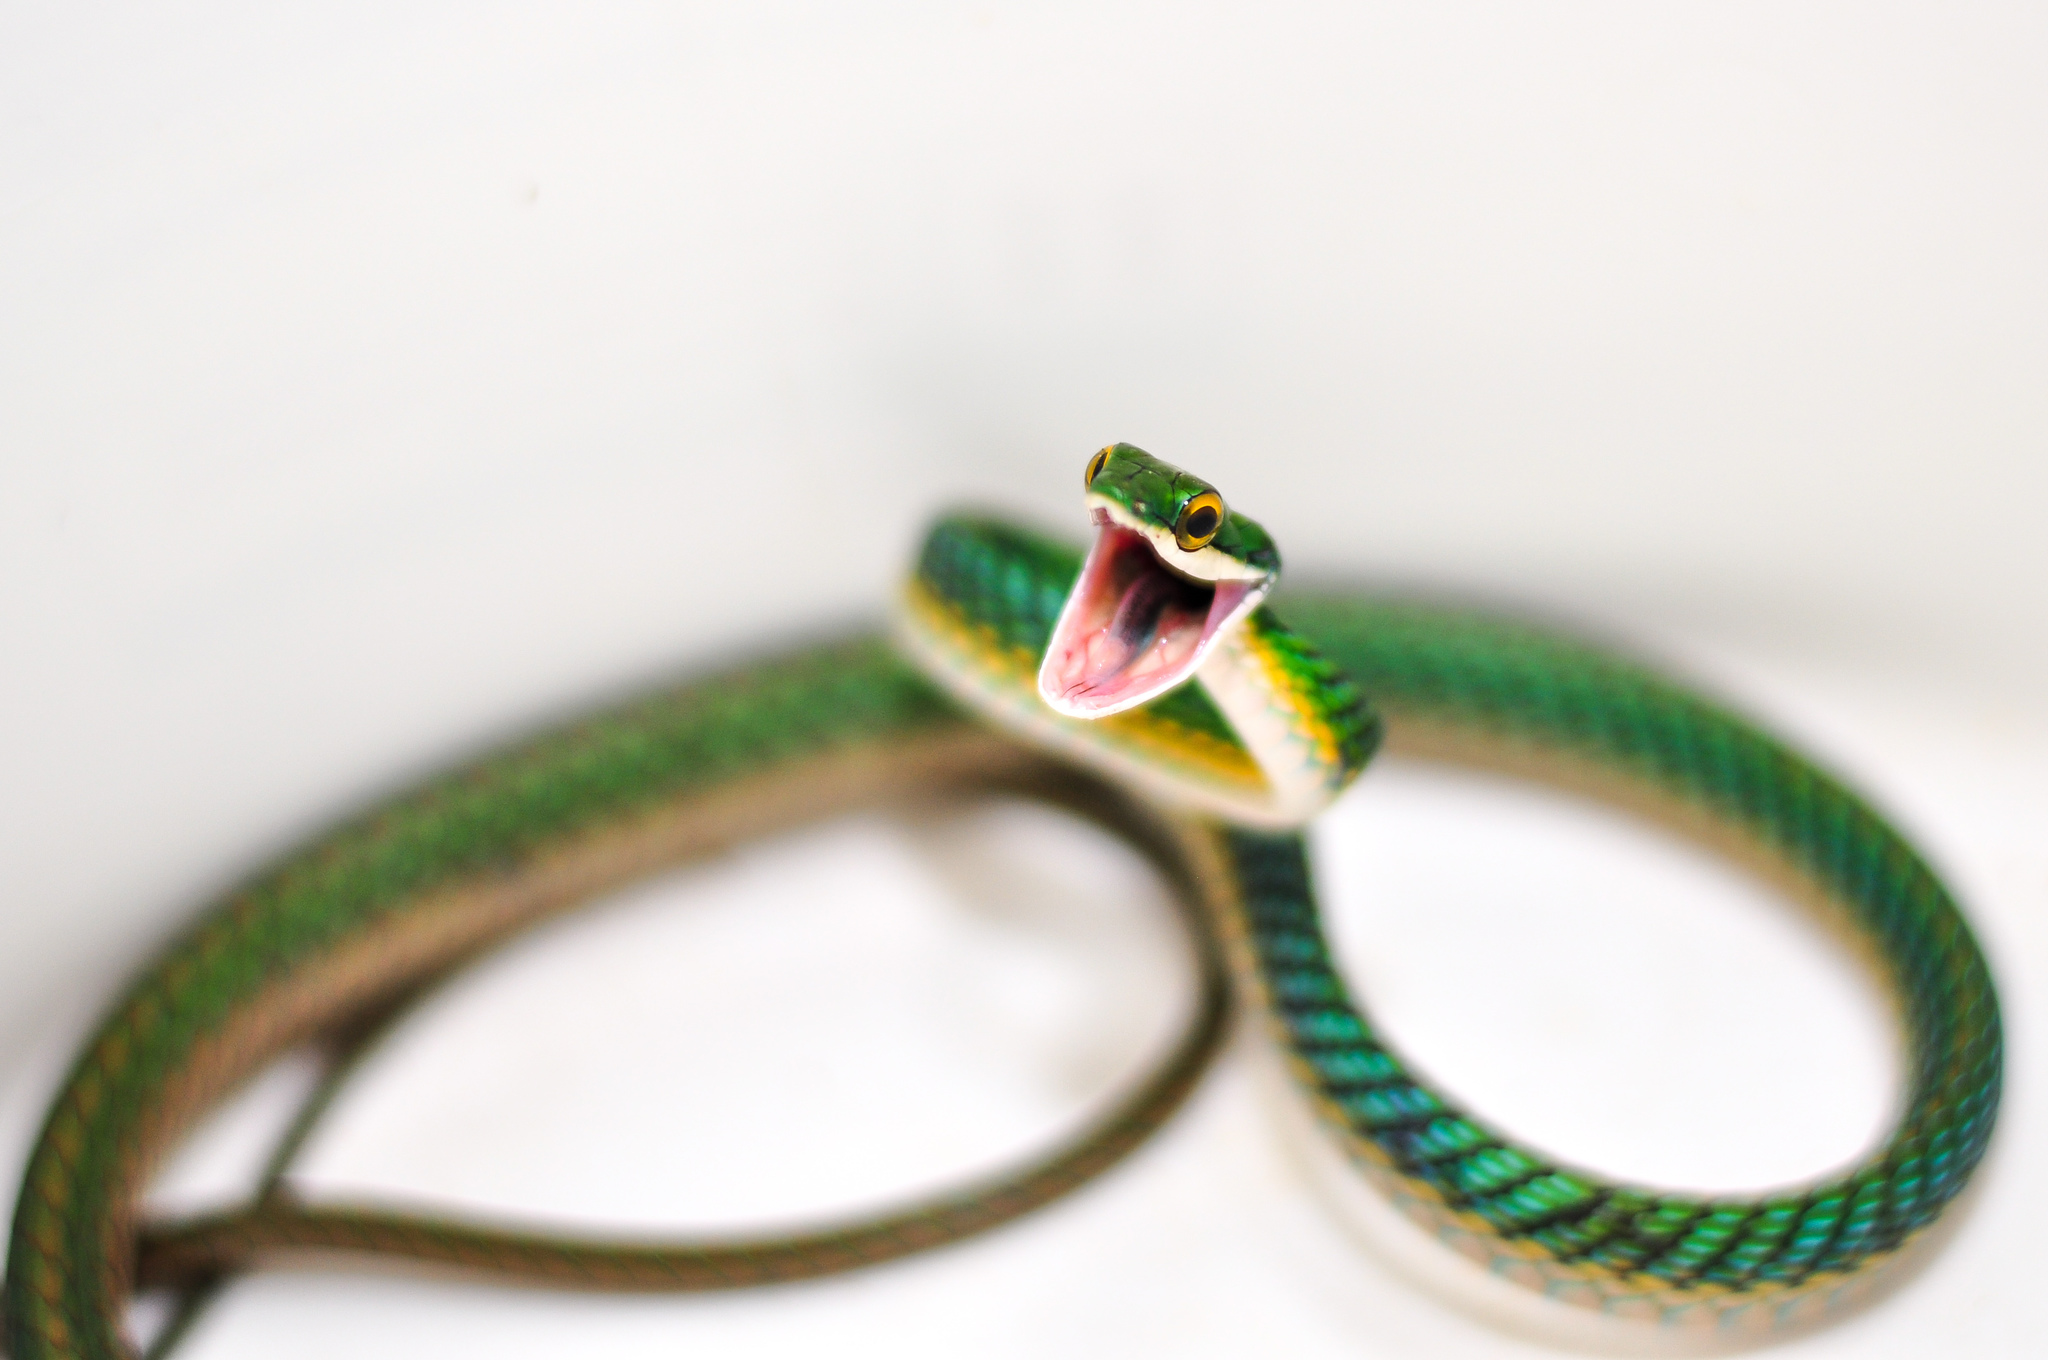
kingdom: Animalia
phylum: Chordata
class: Squamata
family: Colubridae
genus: Leptophis
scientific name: Leptophis ahaetulla
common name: Parrot snake
